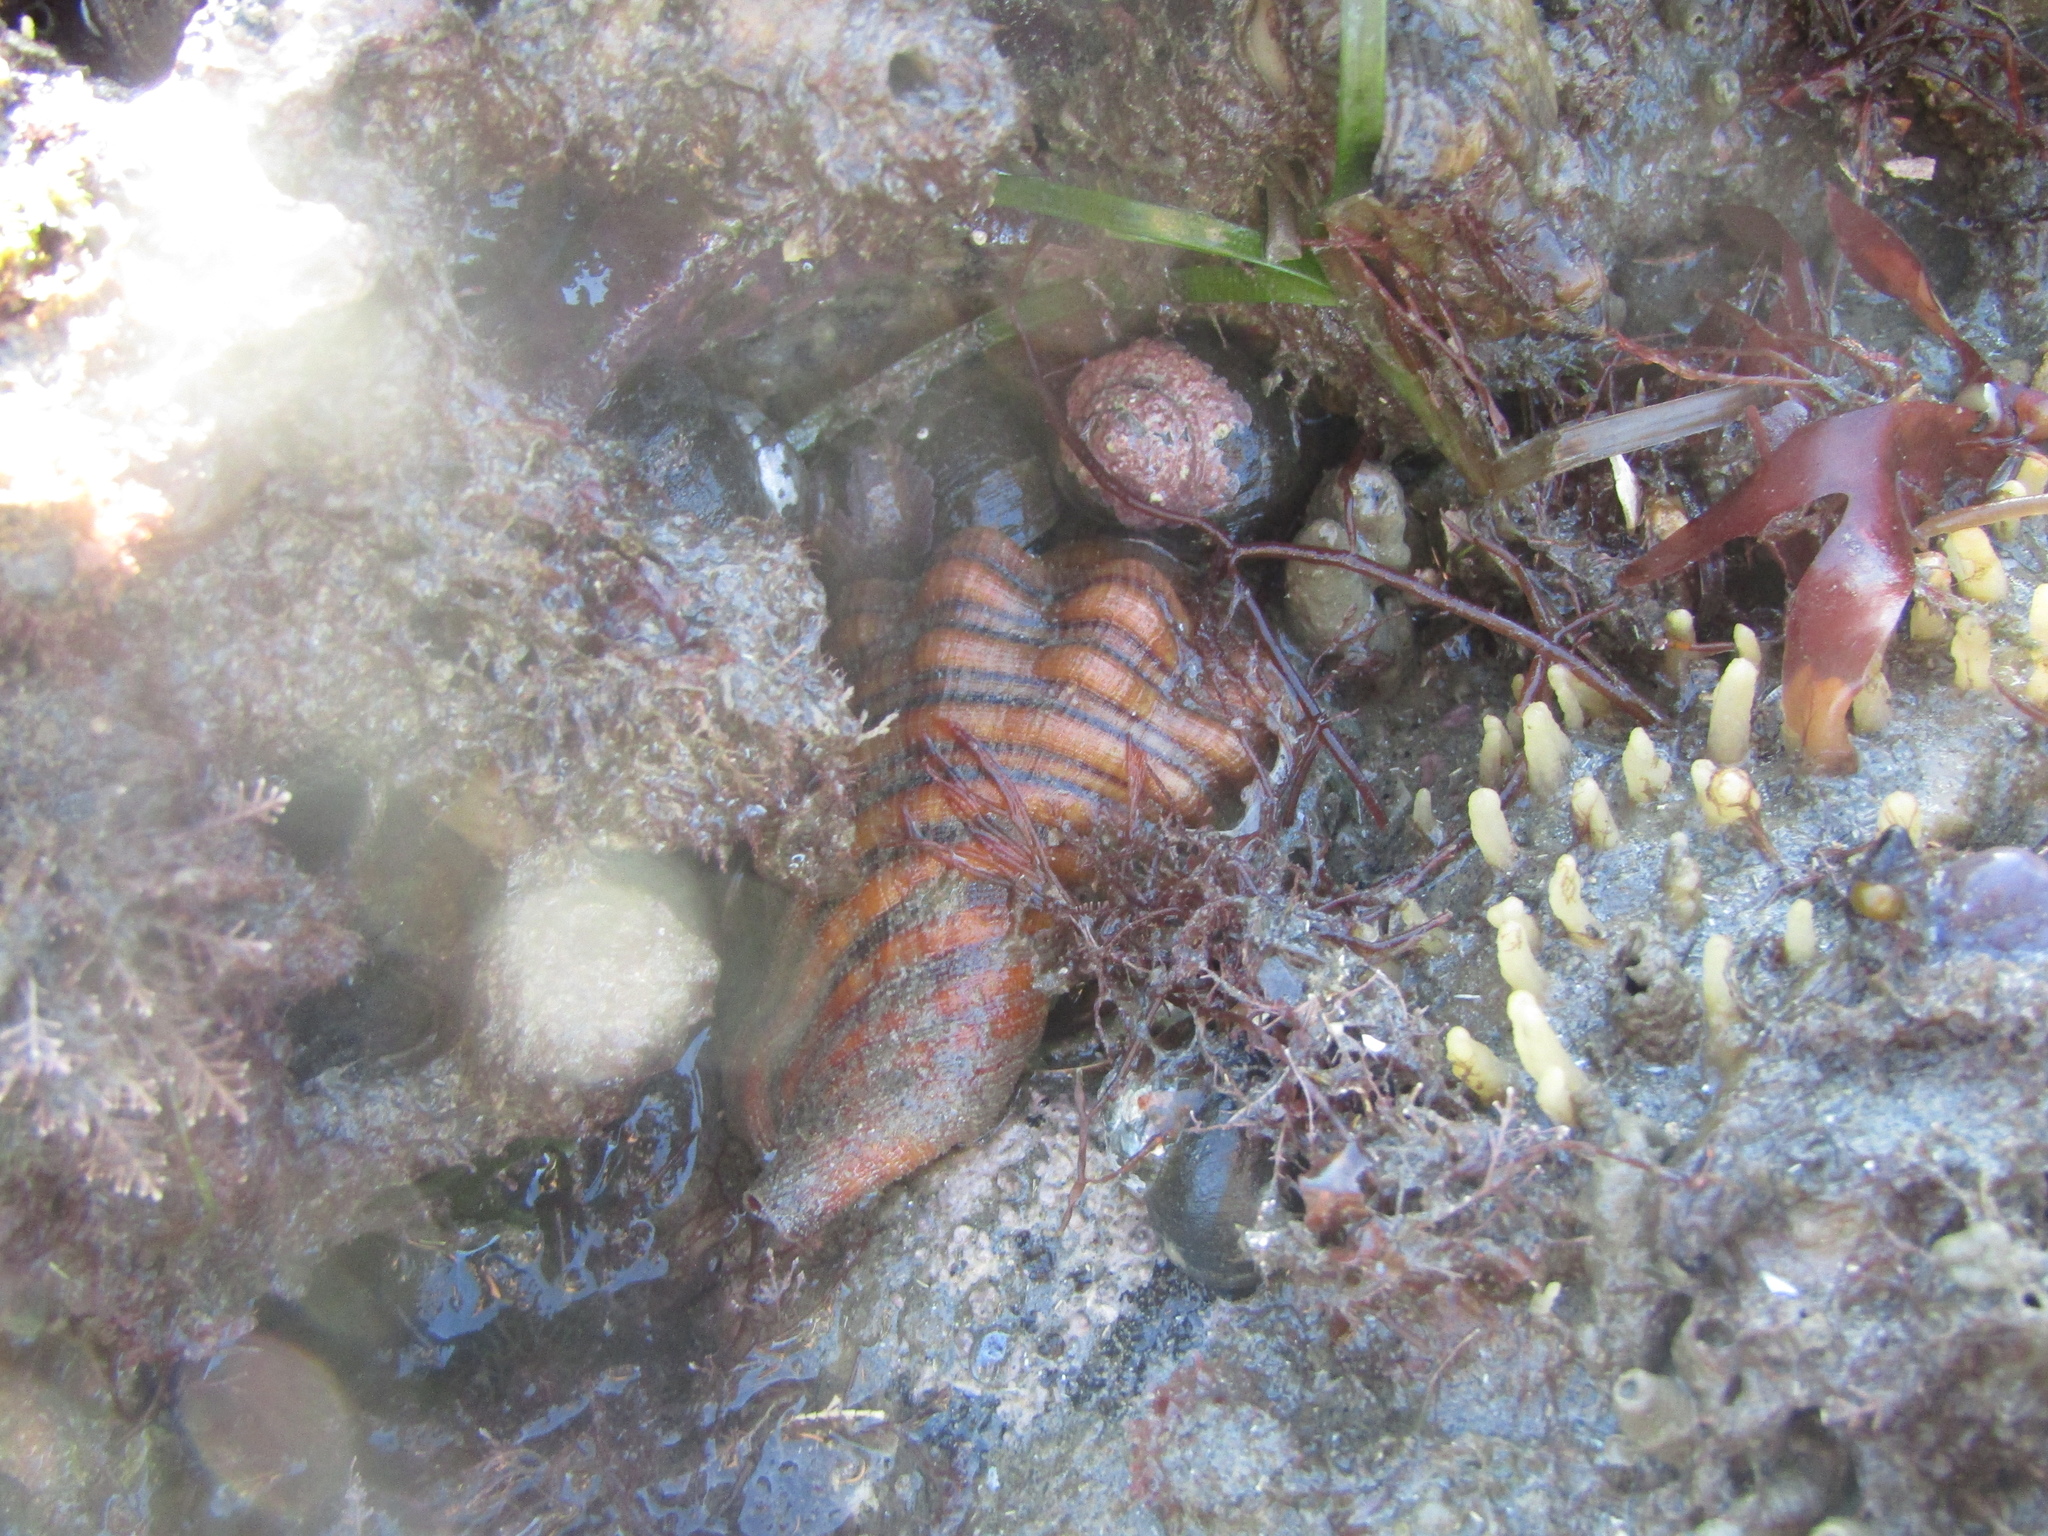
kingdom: Animalia
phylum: Mollusca
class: Gastropoda
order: Littorinimorpha
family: Cymatiidae
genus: Cabestana
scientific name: Cabestana spengleri
